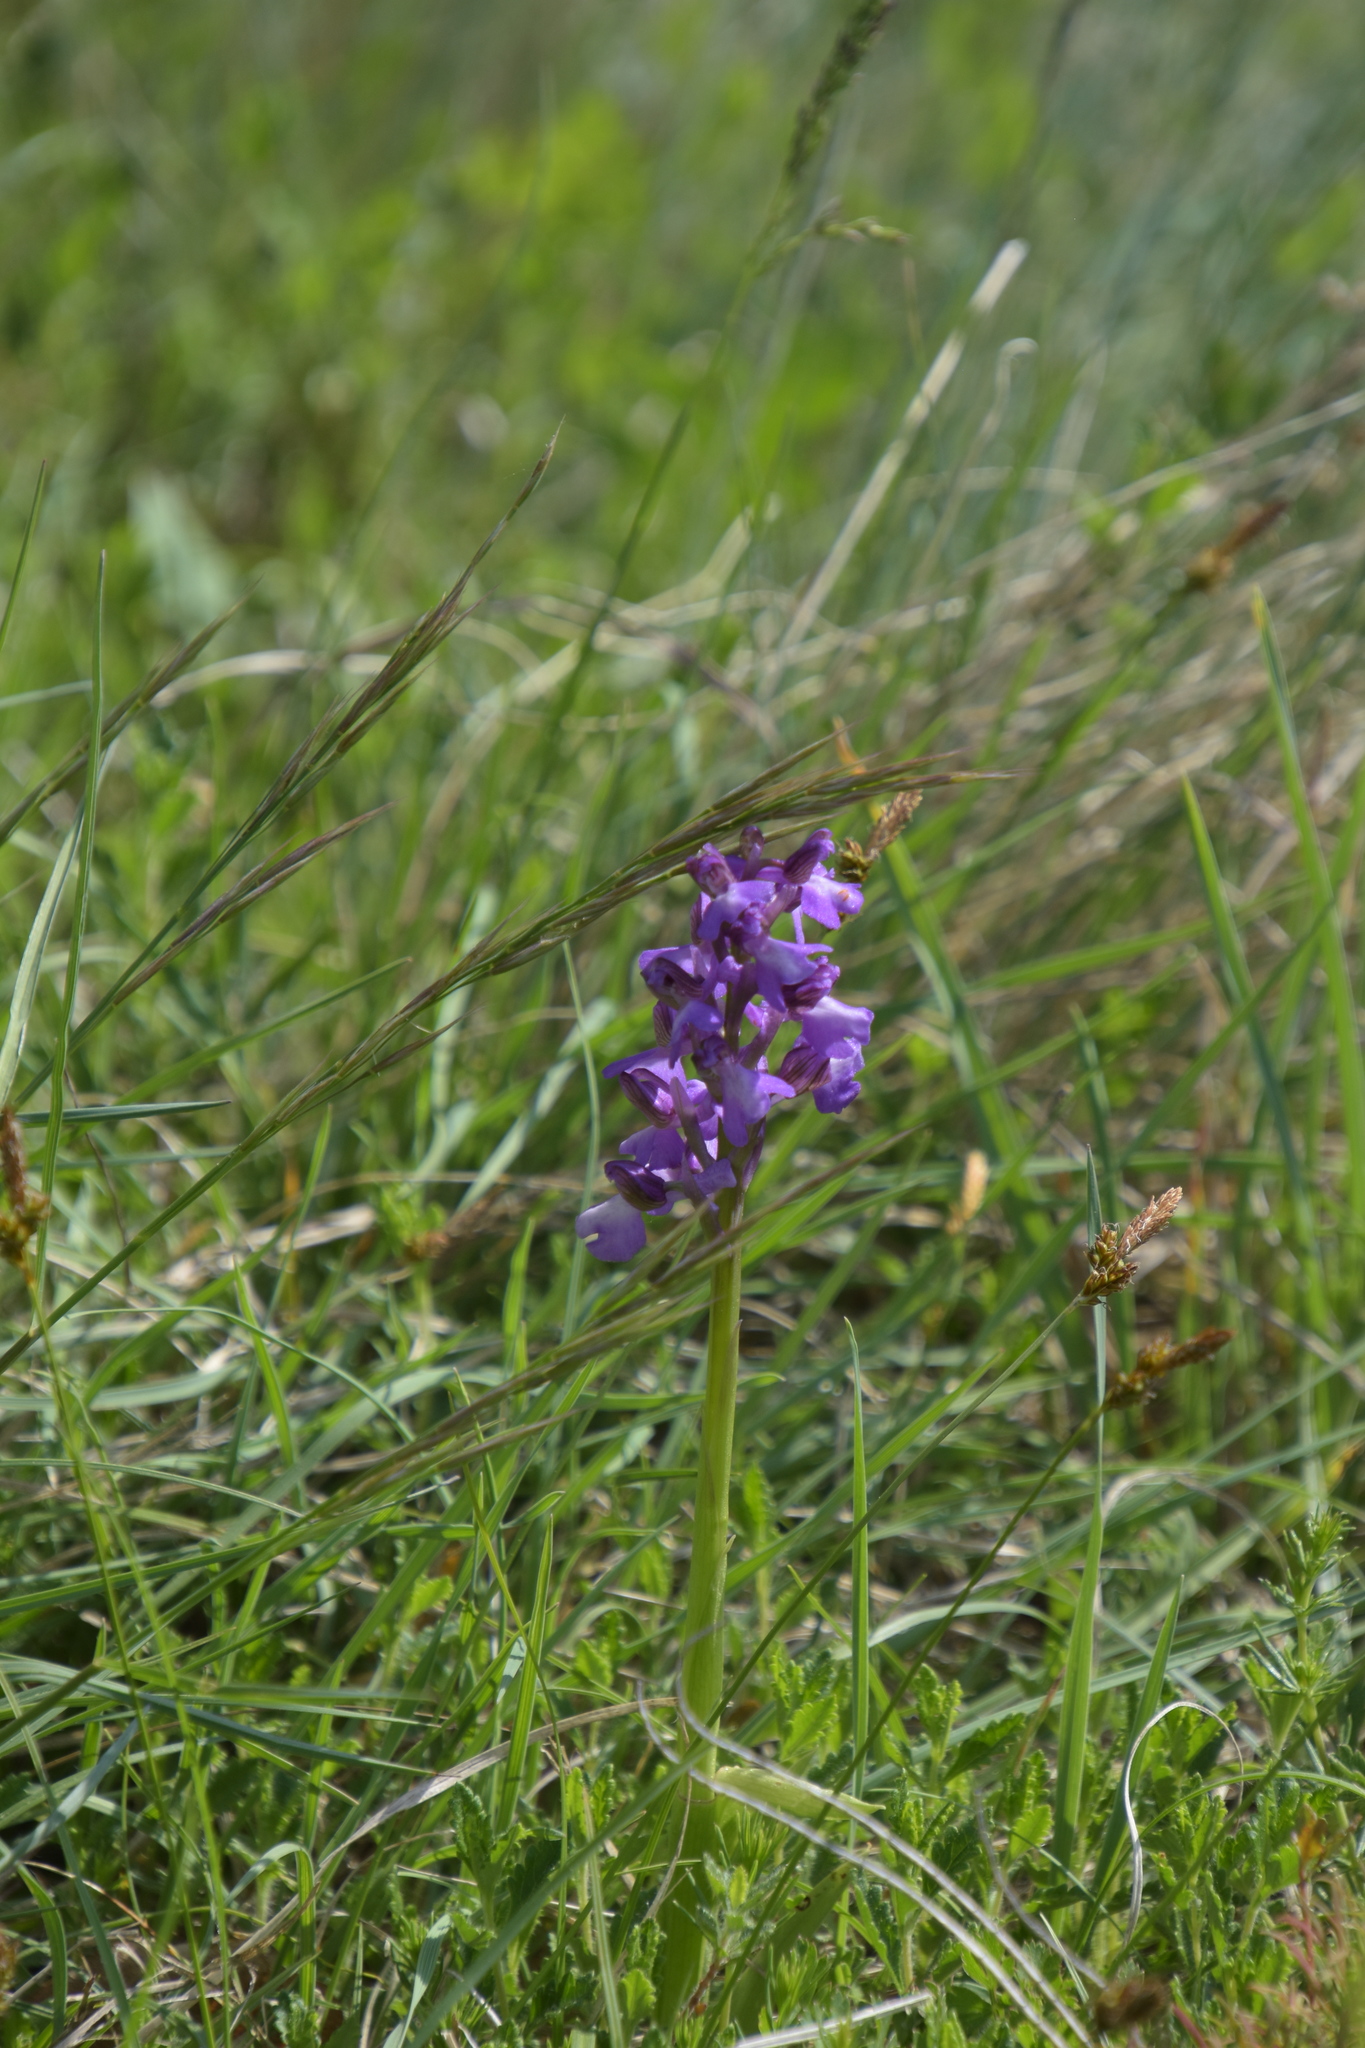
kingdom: Plantae
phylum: Tracheophyta
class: Liliopsida
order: Asparagales
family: Orchidaceae
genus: Anacamptis
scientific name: Anacamptis morio
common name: Green-winged orchid
